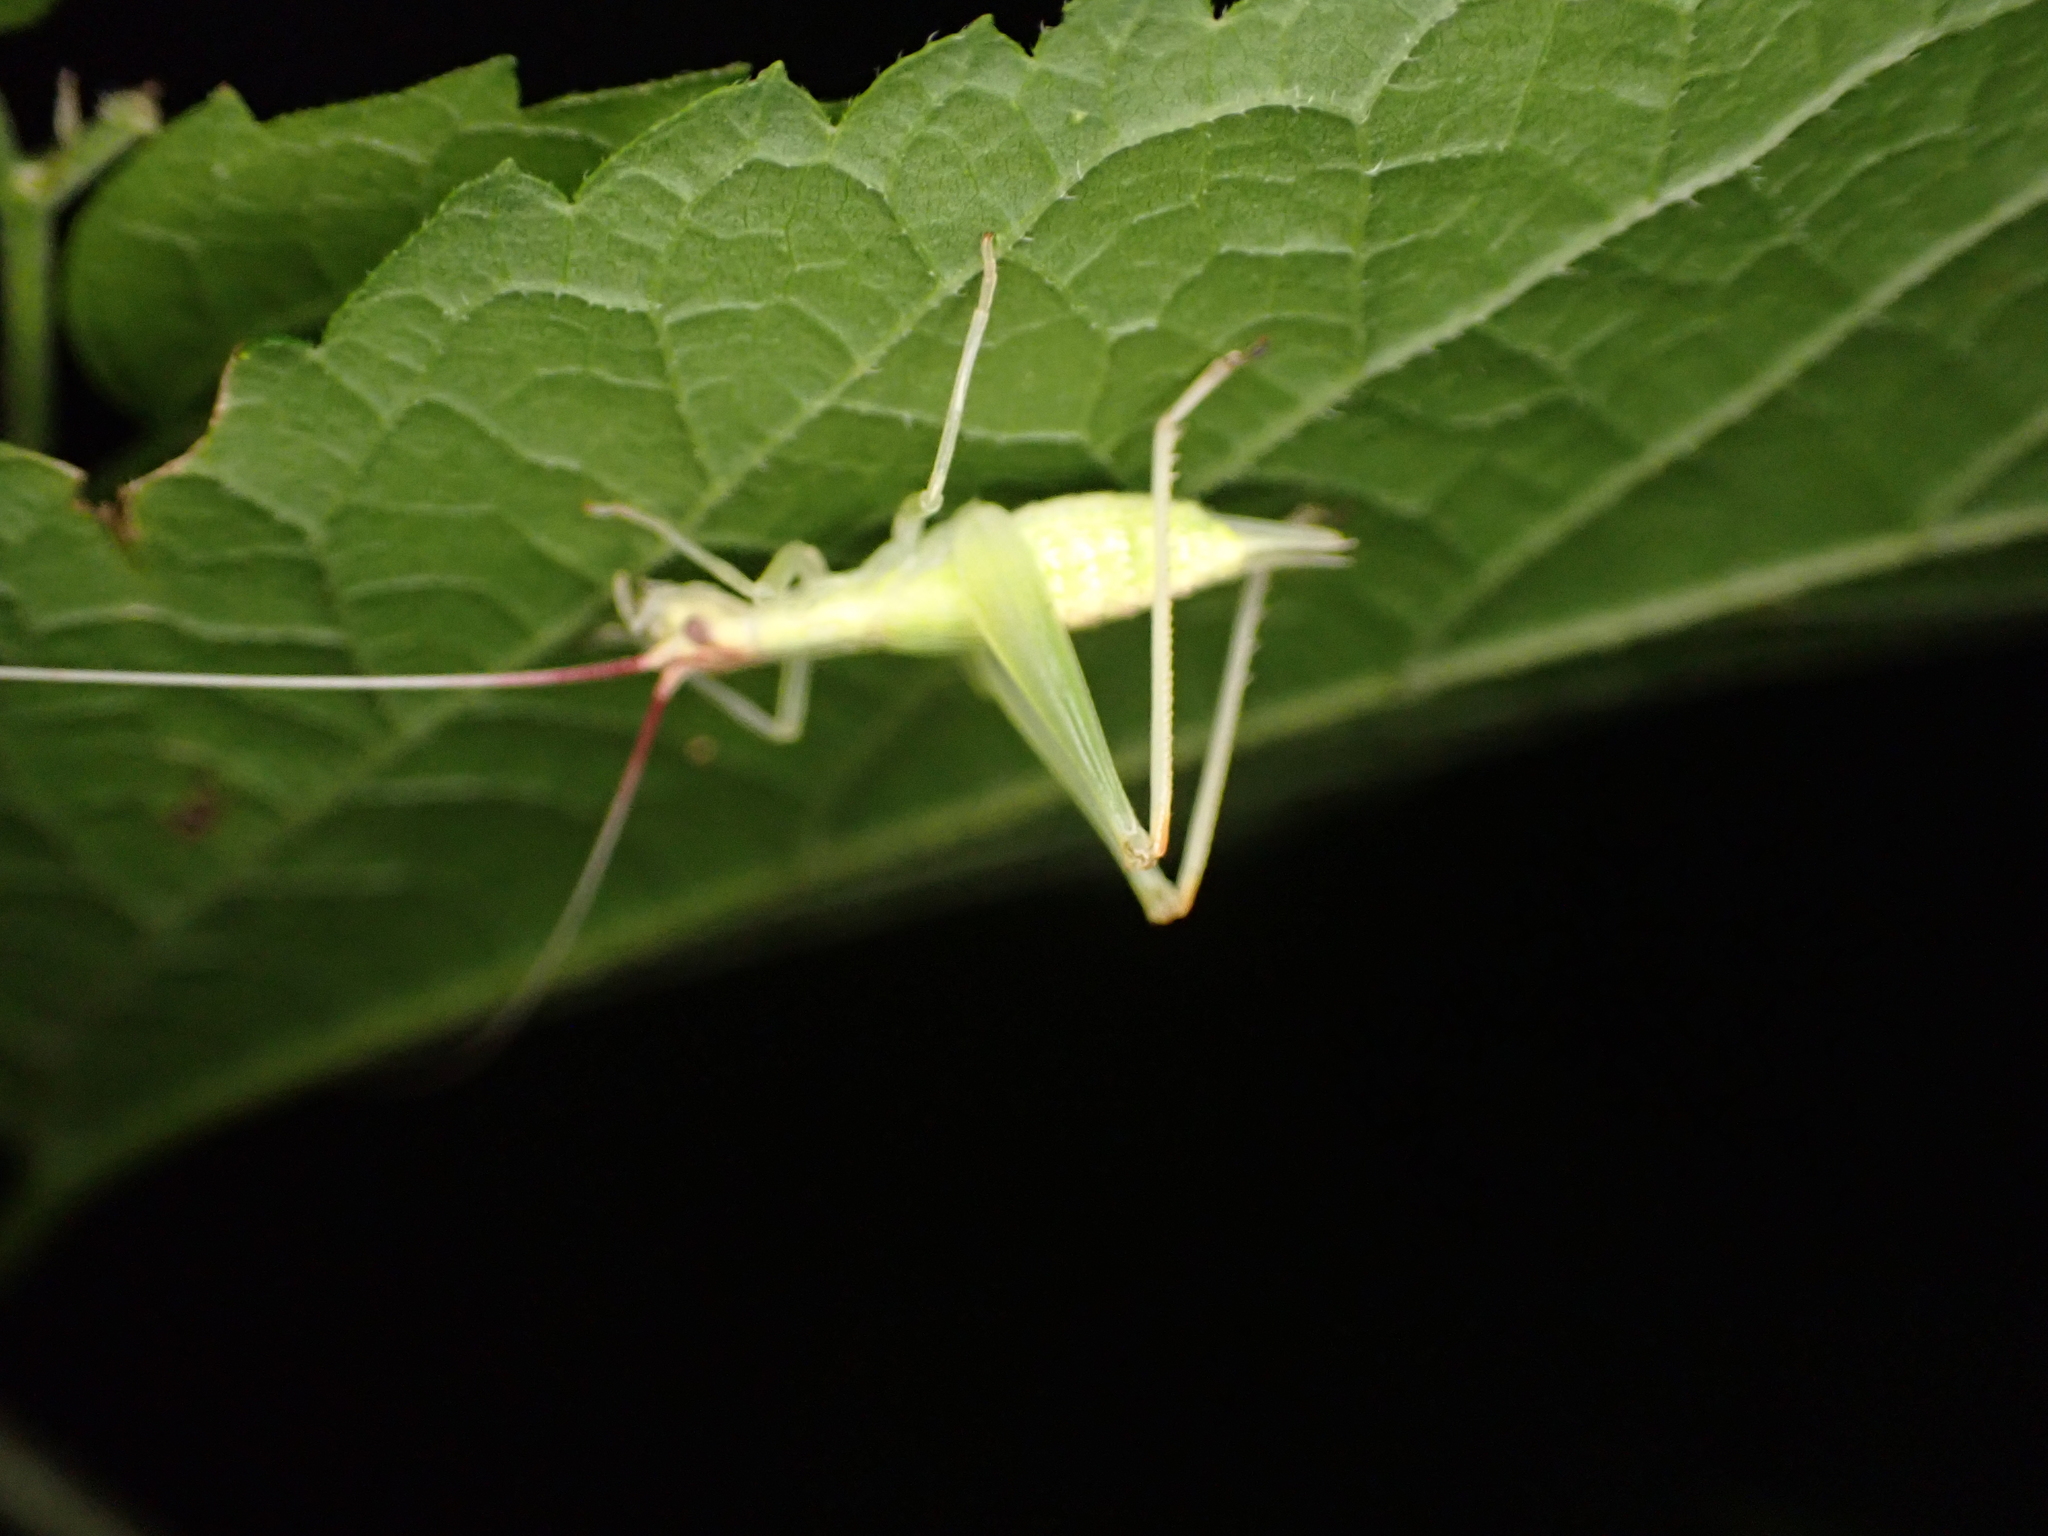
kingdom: Animalia
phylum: Arthropoda
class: Insecta
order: Orthoptera
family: Gryllidae
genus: Oecanthus
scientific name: Oecanthus latipennis
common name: Broad-winged tree cricket
